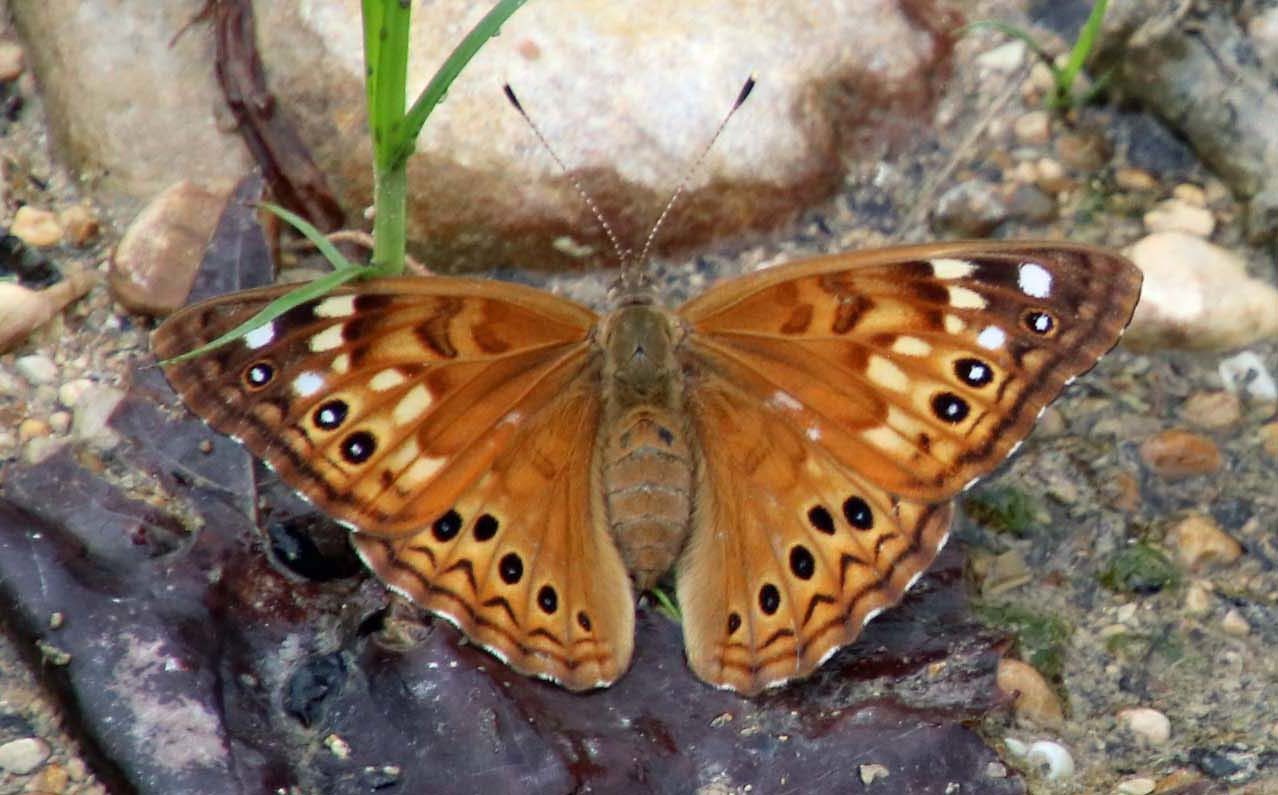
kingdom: Animalia
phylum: Arthropoda
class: Insecta
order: Lepidoptera
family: Nymphalidae
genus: Asterocampa
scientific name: Asterocampa leilia
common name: Empress leilia
